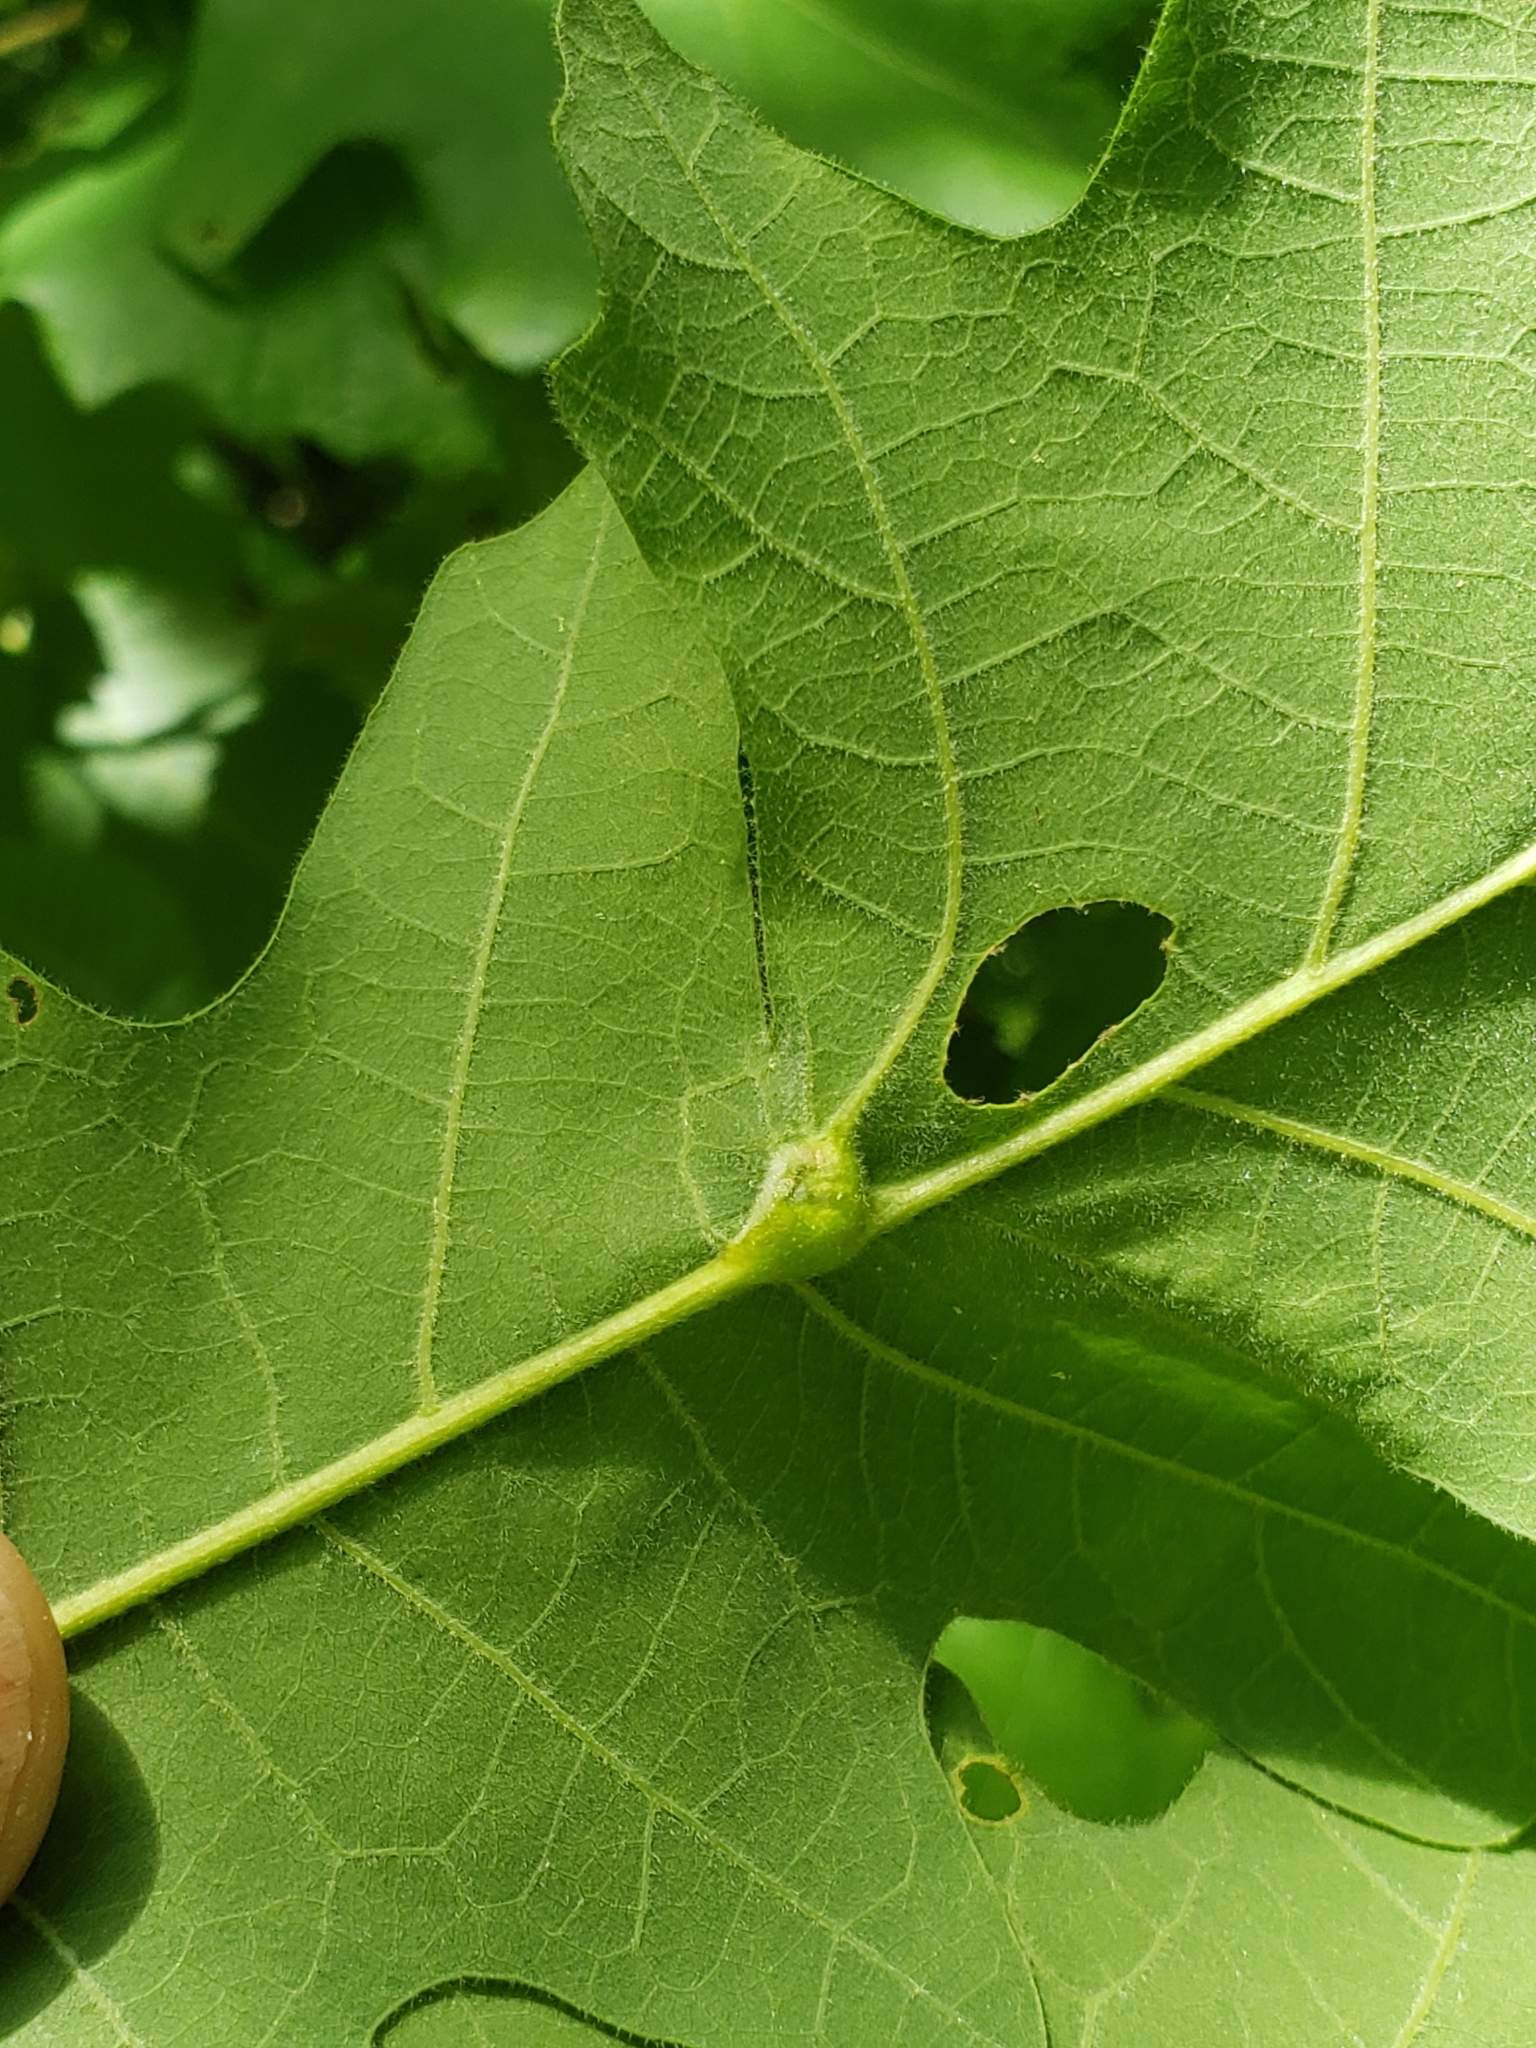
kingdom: Animalia
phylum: Arthropoda
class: Insecta
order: Hymenoptera
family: Cynipidae
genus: Bassettia
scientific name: Bassettia flavipes
